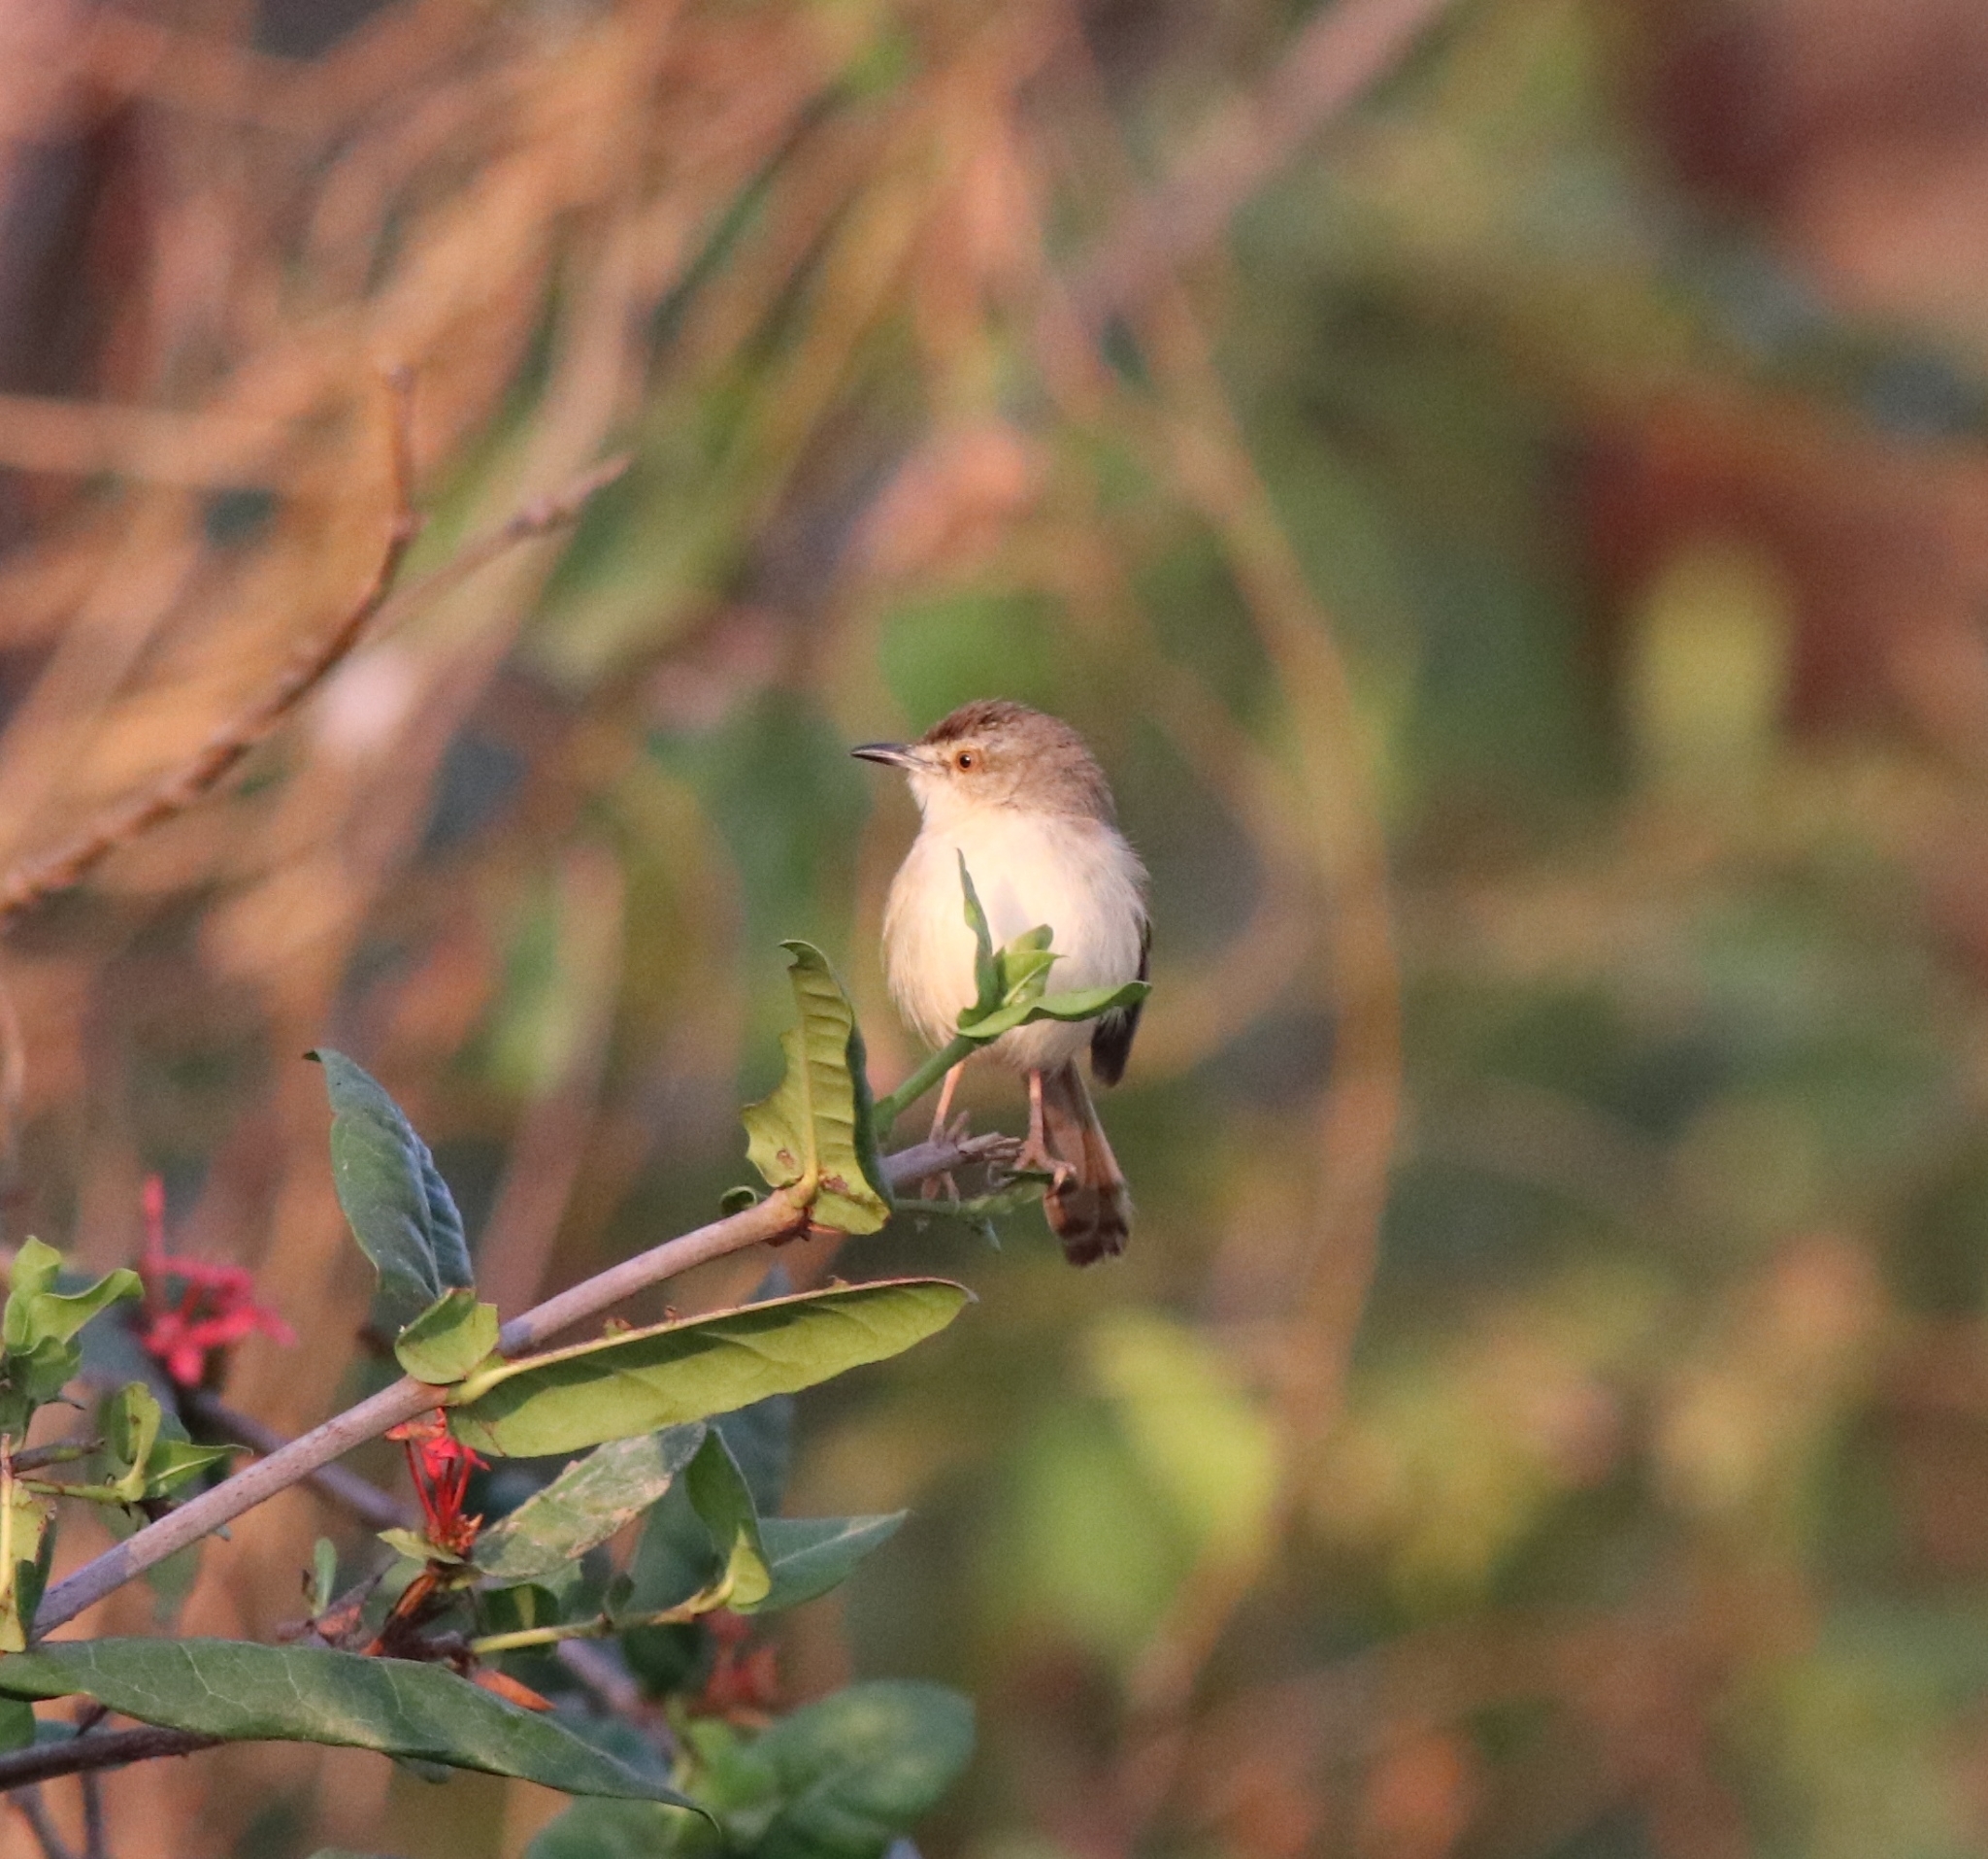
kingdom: Animalia
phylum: Chordata
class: Aves
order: Passeriformes
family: Cisticolidae
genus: Prinia
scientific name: Prinia inornata
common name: Plain prinia
